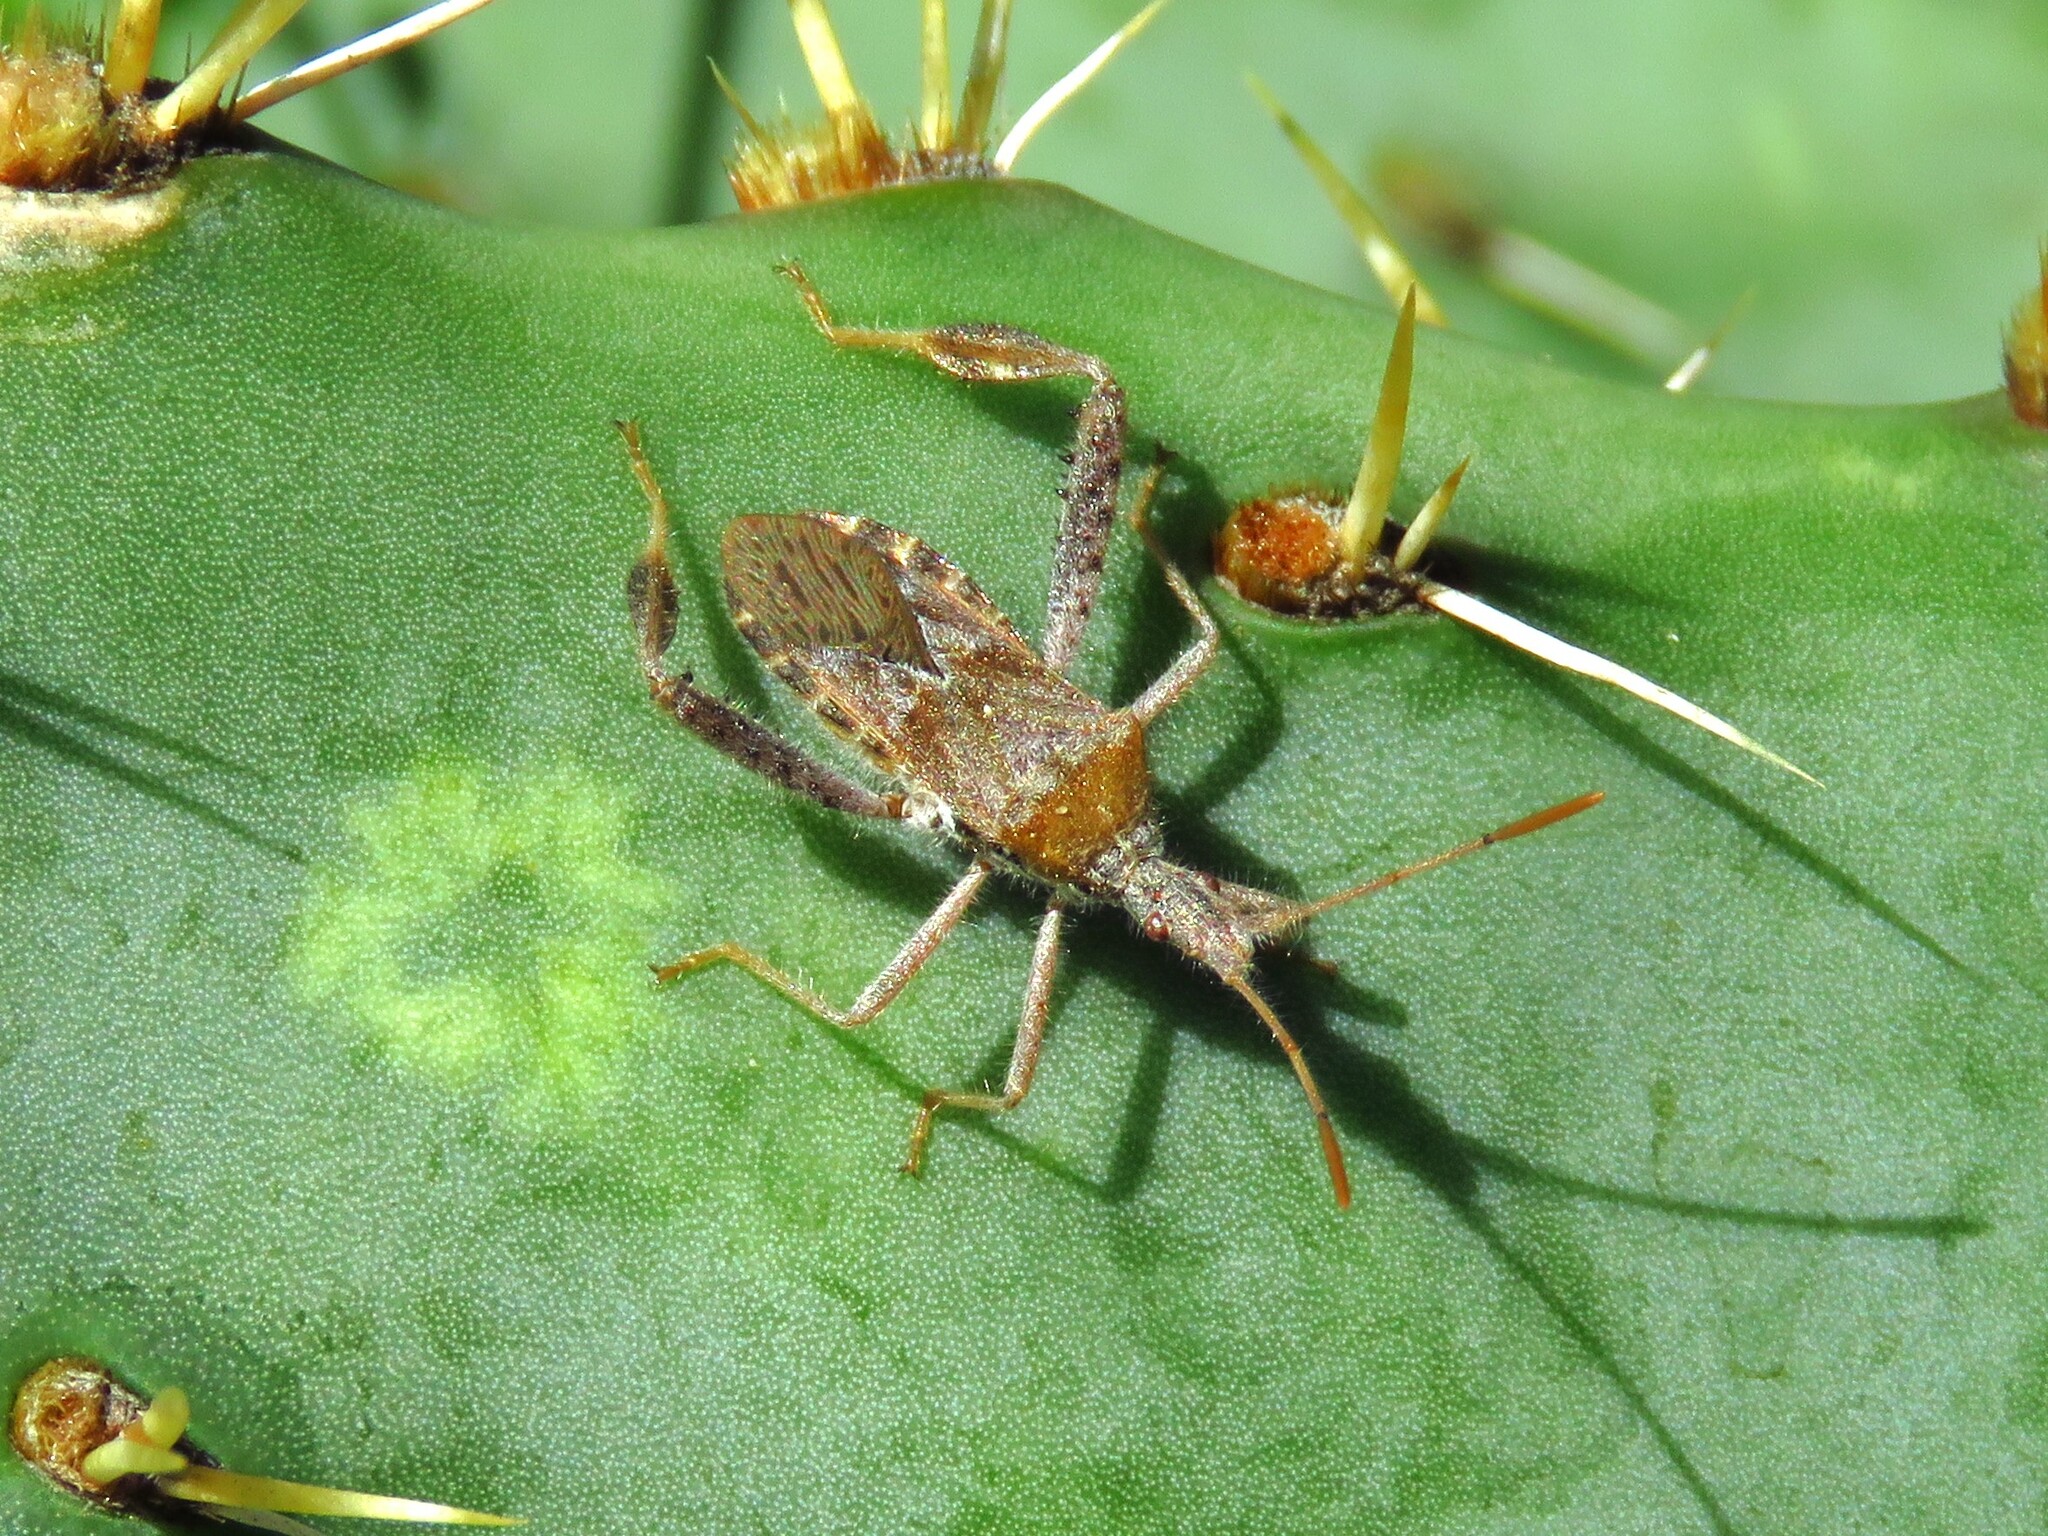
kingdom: Animalia
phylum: Arthropoda
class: Insecta
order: Hemiptera
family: Coreidae
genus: Narnia
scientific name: Narnia femorata
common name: Leaf-footed cactus bug
